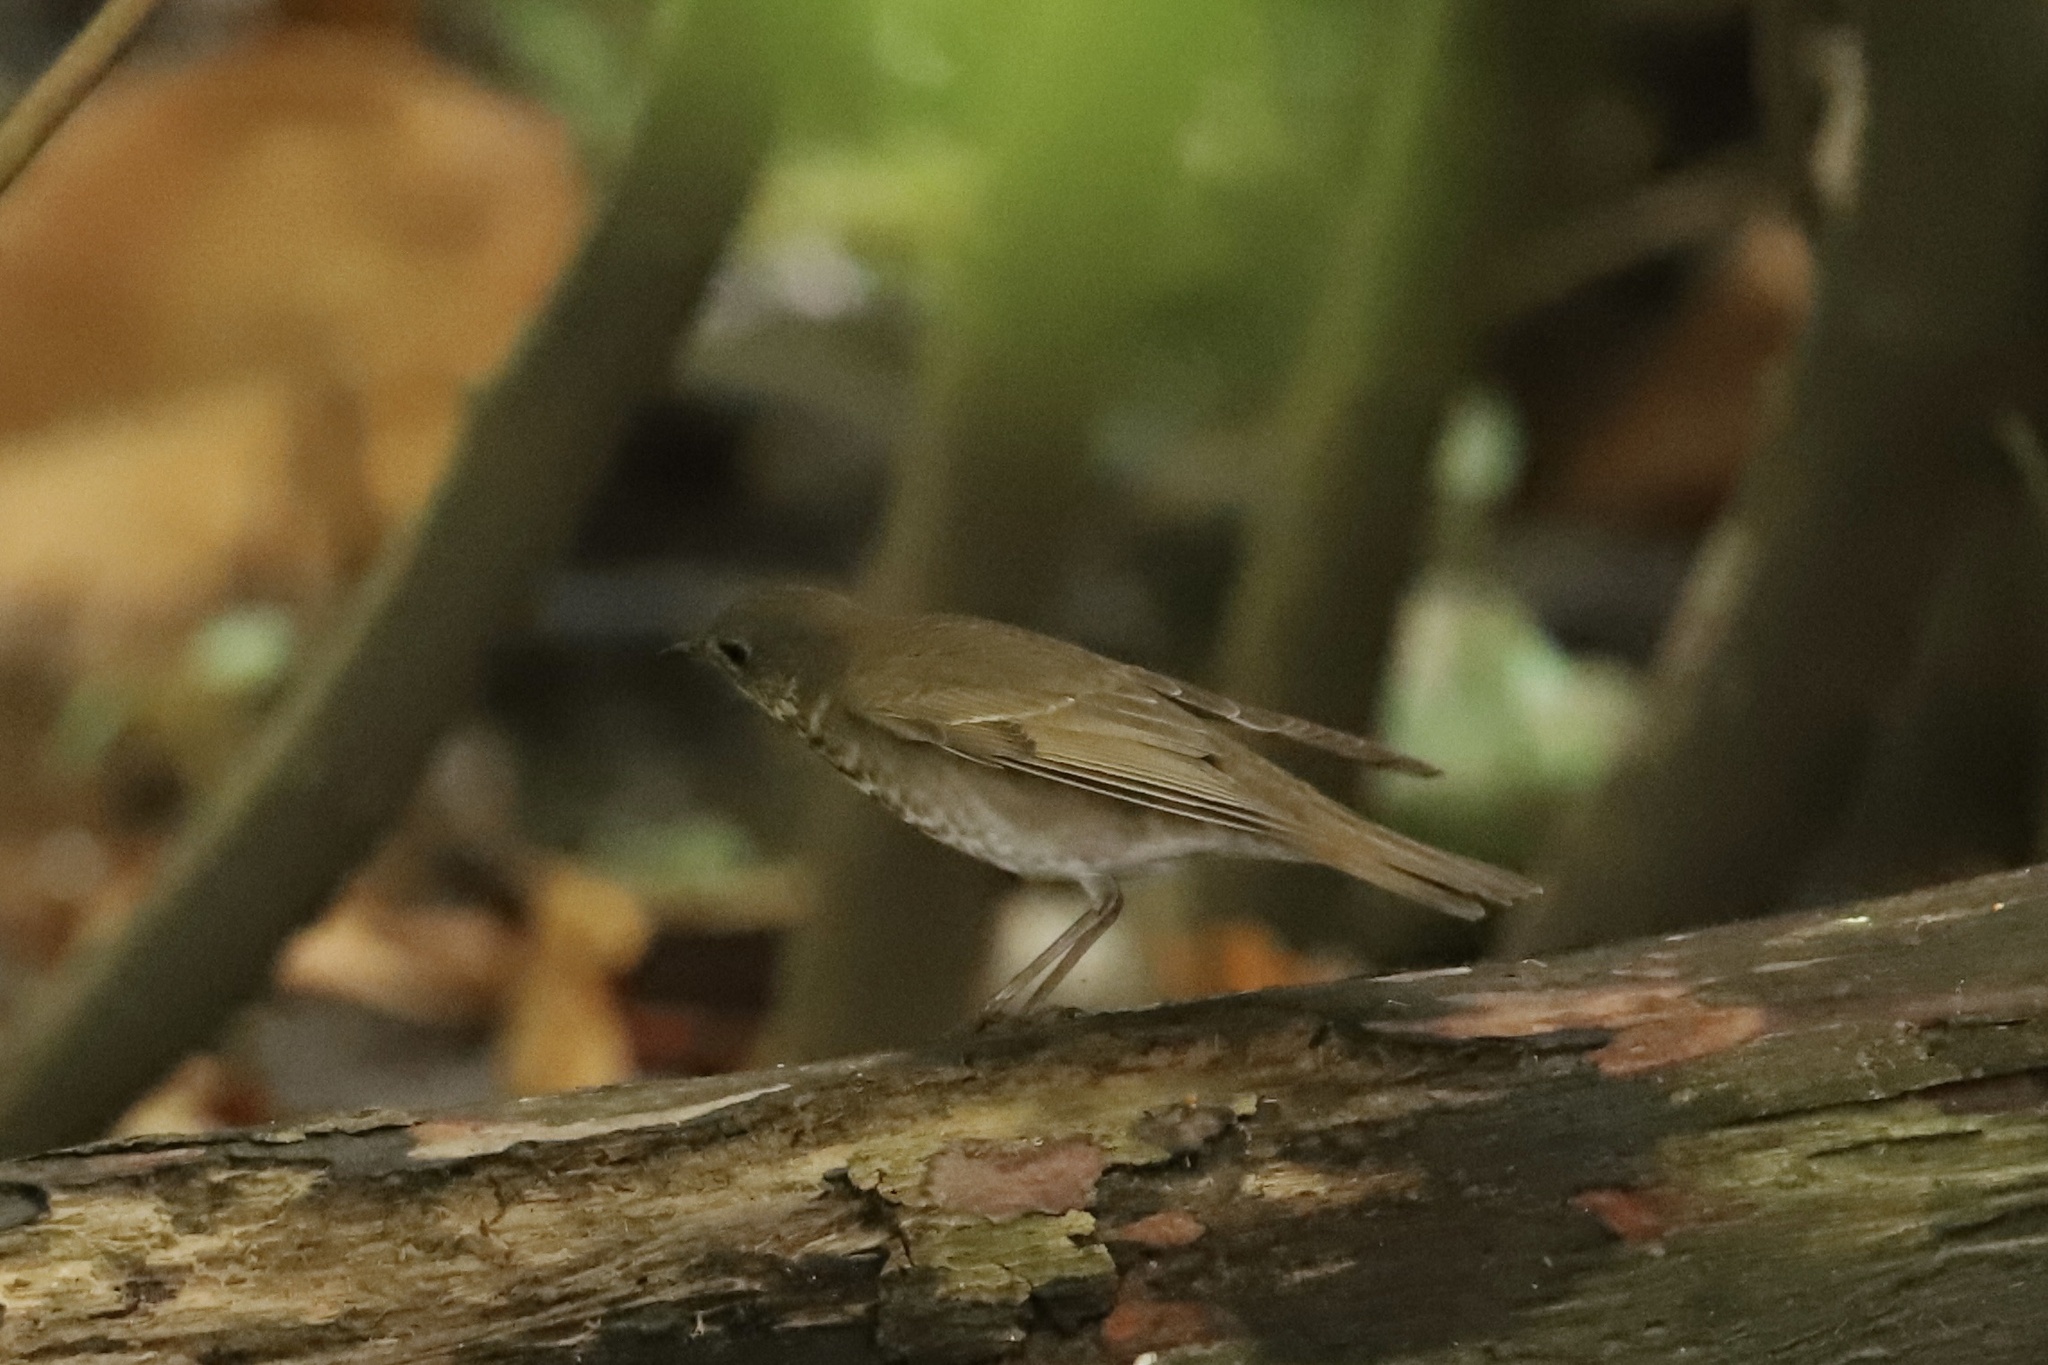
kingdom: Animalia
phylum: Chordata
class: Aves
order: Passeriformes
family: Turdidae
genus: Catharus
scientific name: Catharus minimus
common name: Grey-cheeked thrush
